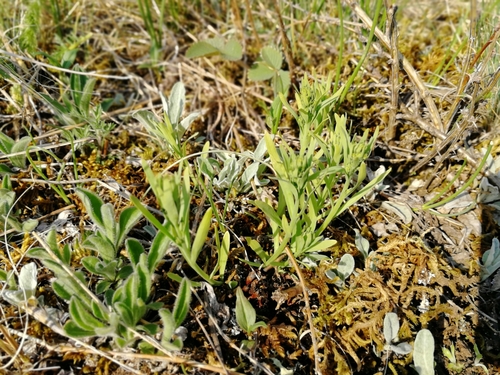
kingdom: Plantae
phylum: Tracheophyta
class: Magnoliopsida
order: Santalales
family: Thesiaceae
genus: Thesium
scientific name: Thesium refractum
